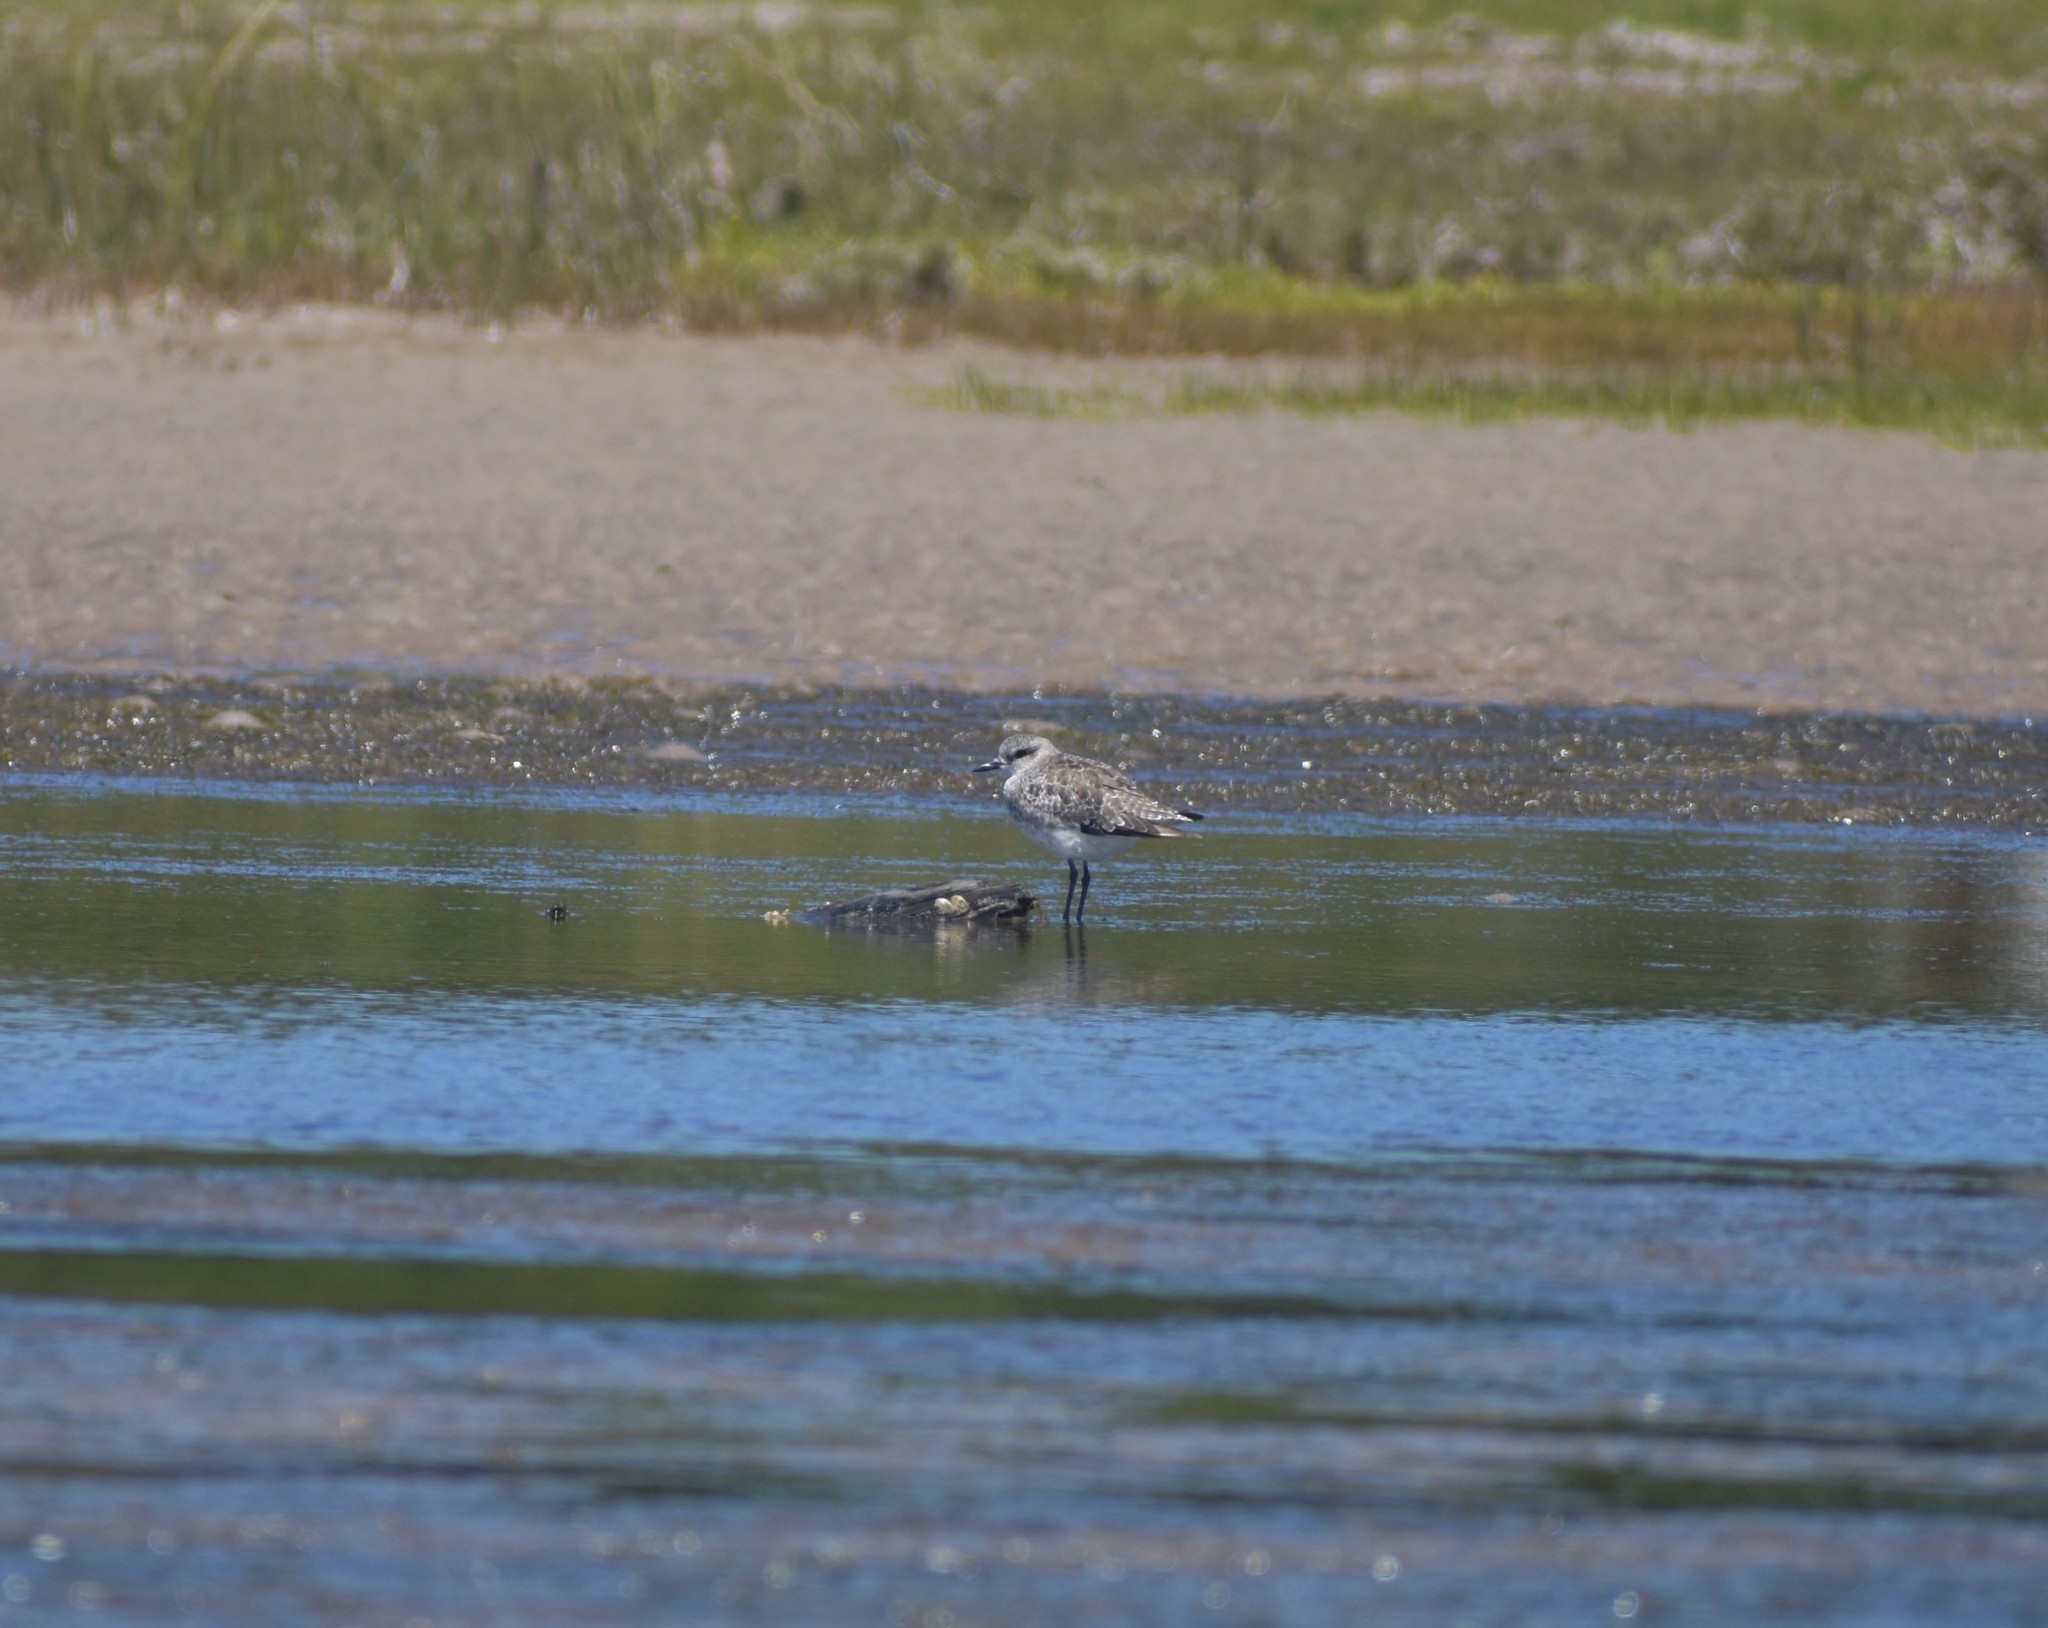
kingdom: Animalia
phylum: Chordata
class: Aves
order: Charadriiformes
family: Charadriidae
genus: Pluvialis
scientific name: Pluvialis squatarola
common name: Grey plover
